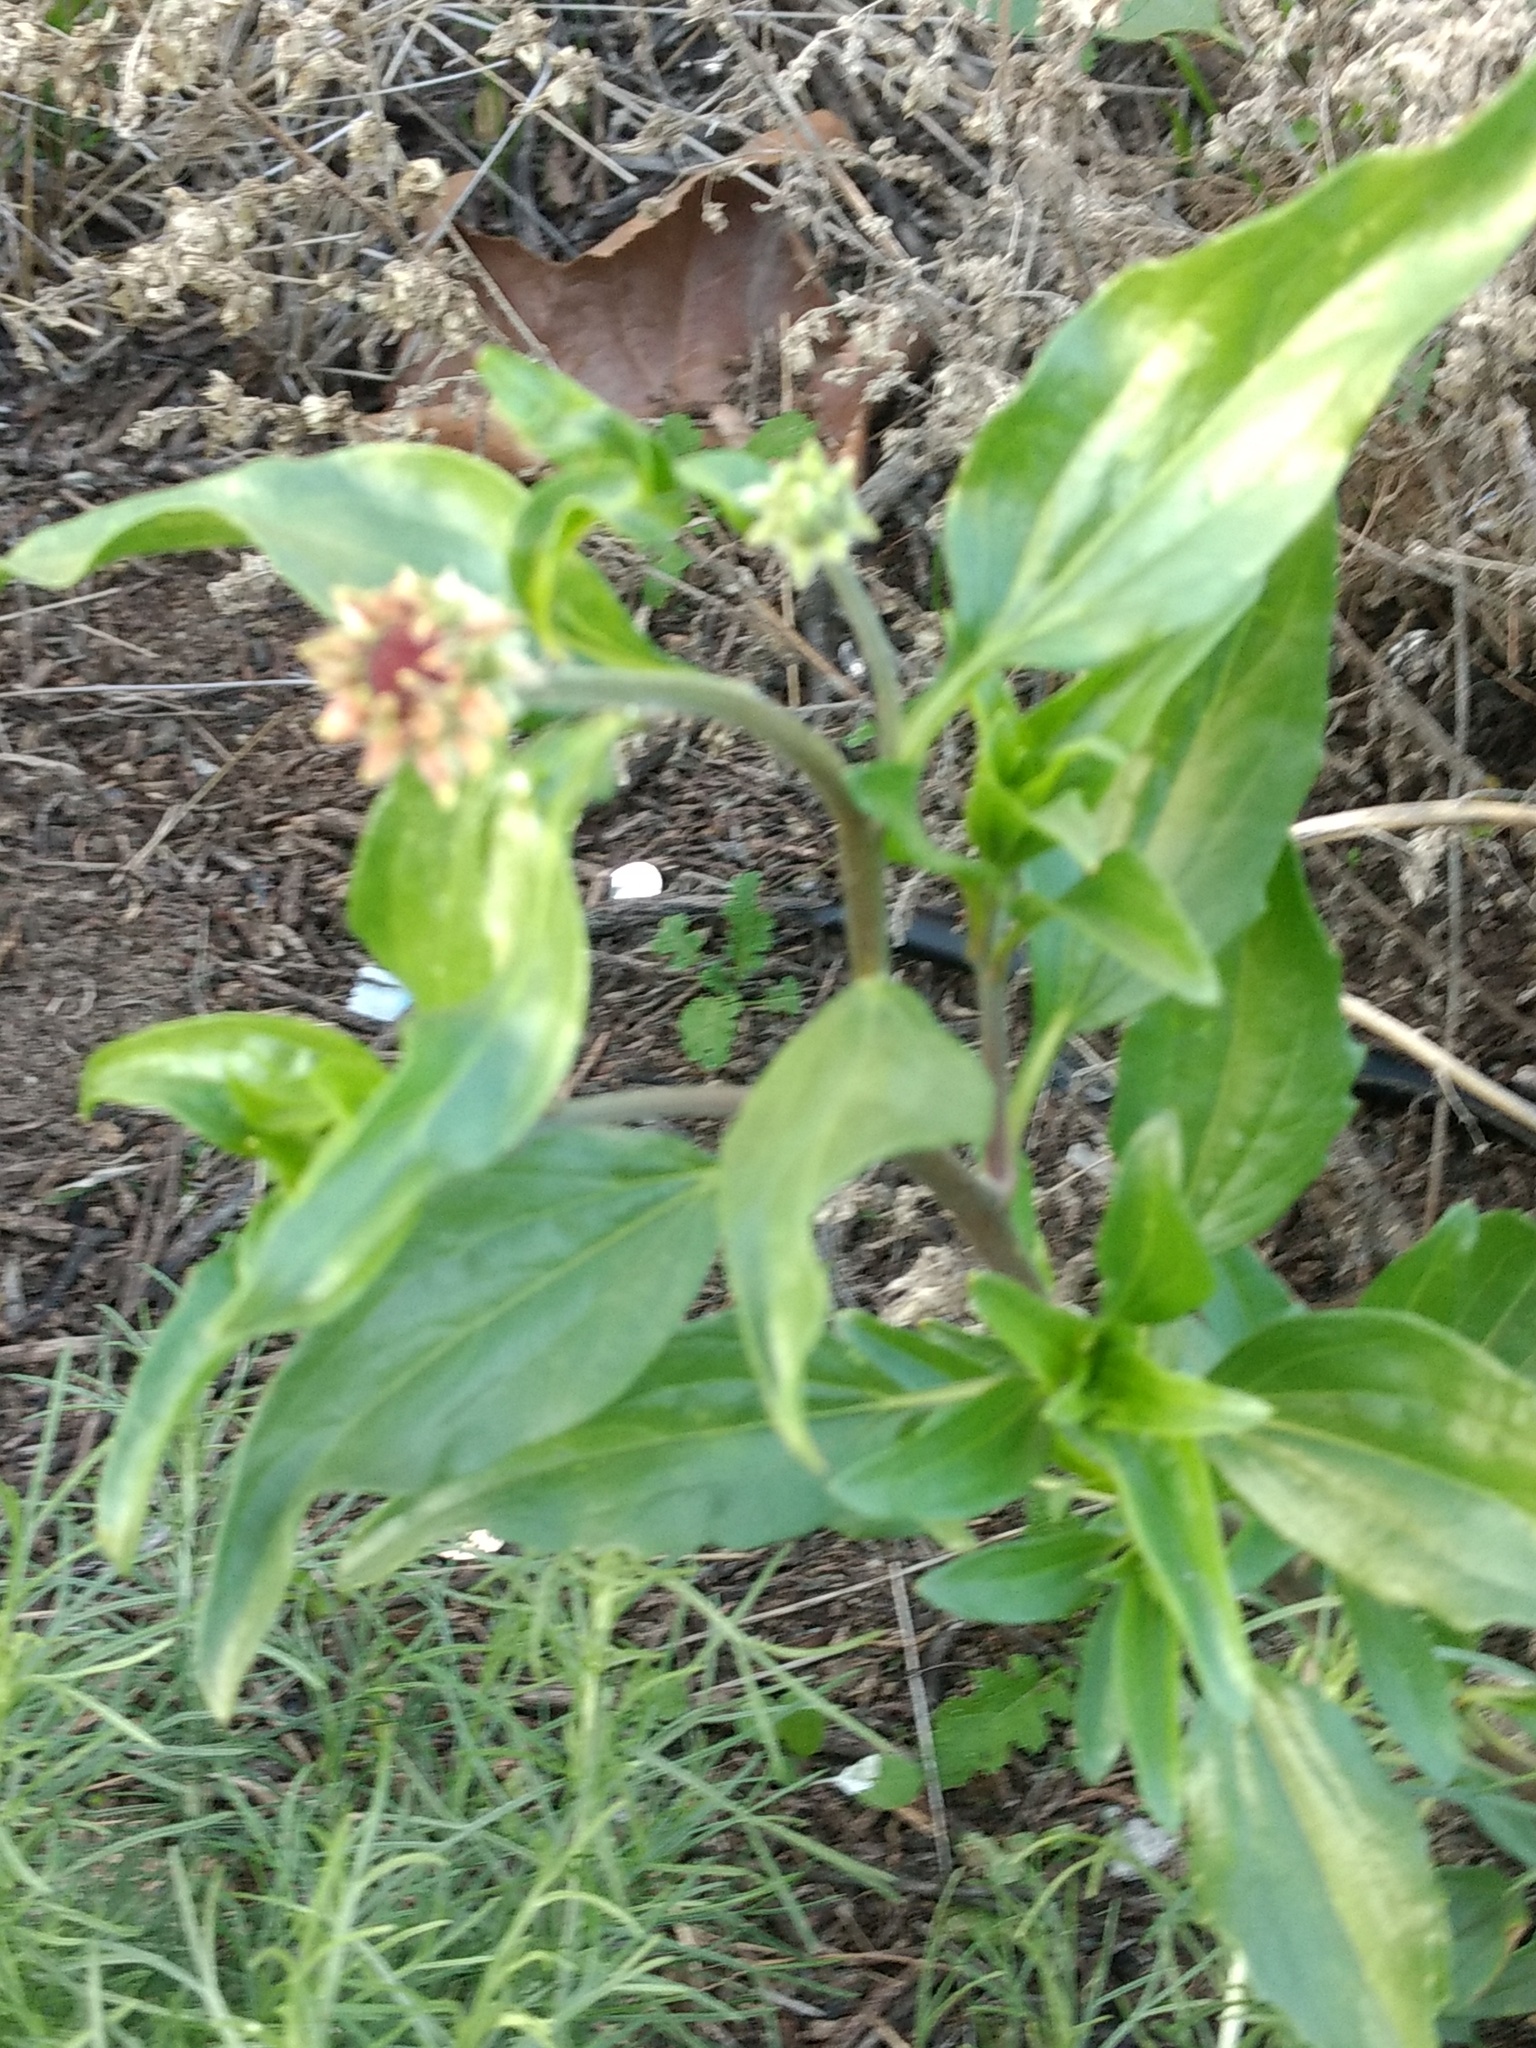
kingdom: Plantae
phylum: Tracheophyta
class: Magnoliopsida
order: Asterales
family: Asteraceae
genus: Encelia
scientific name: Encelia californica
